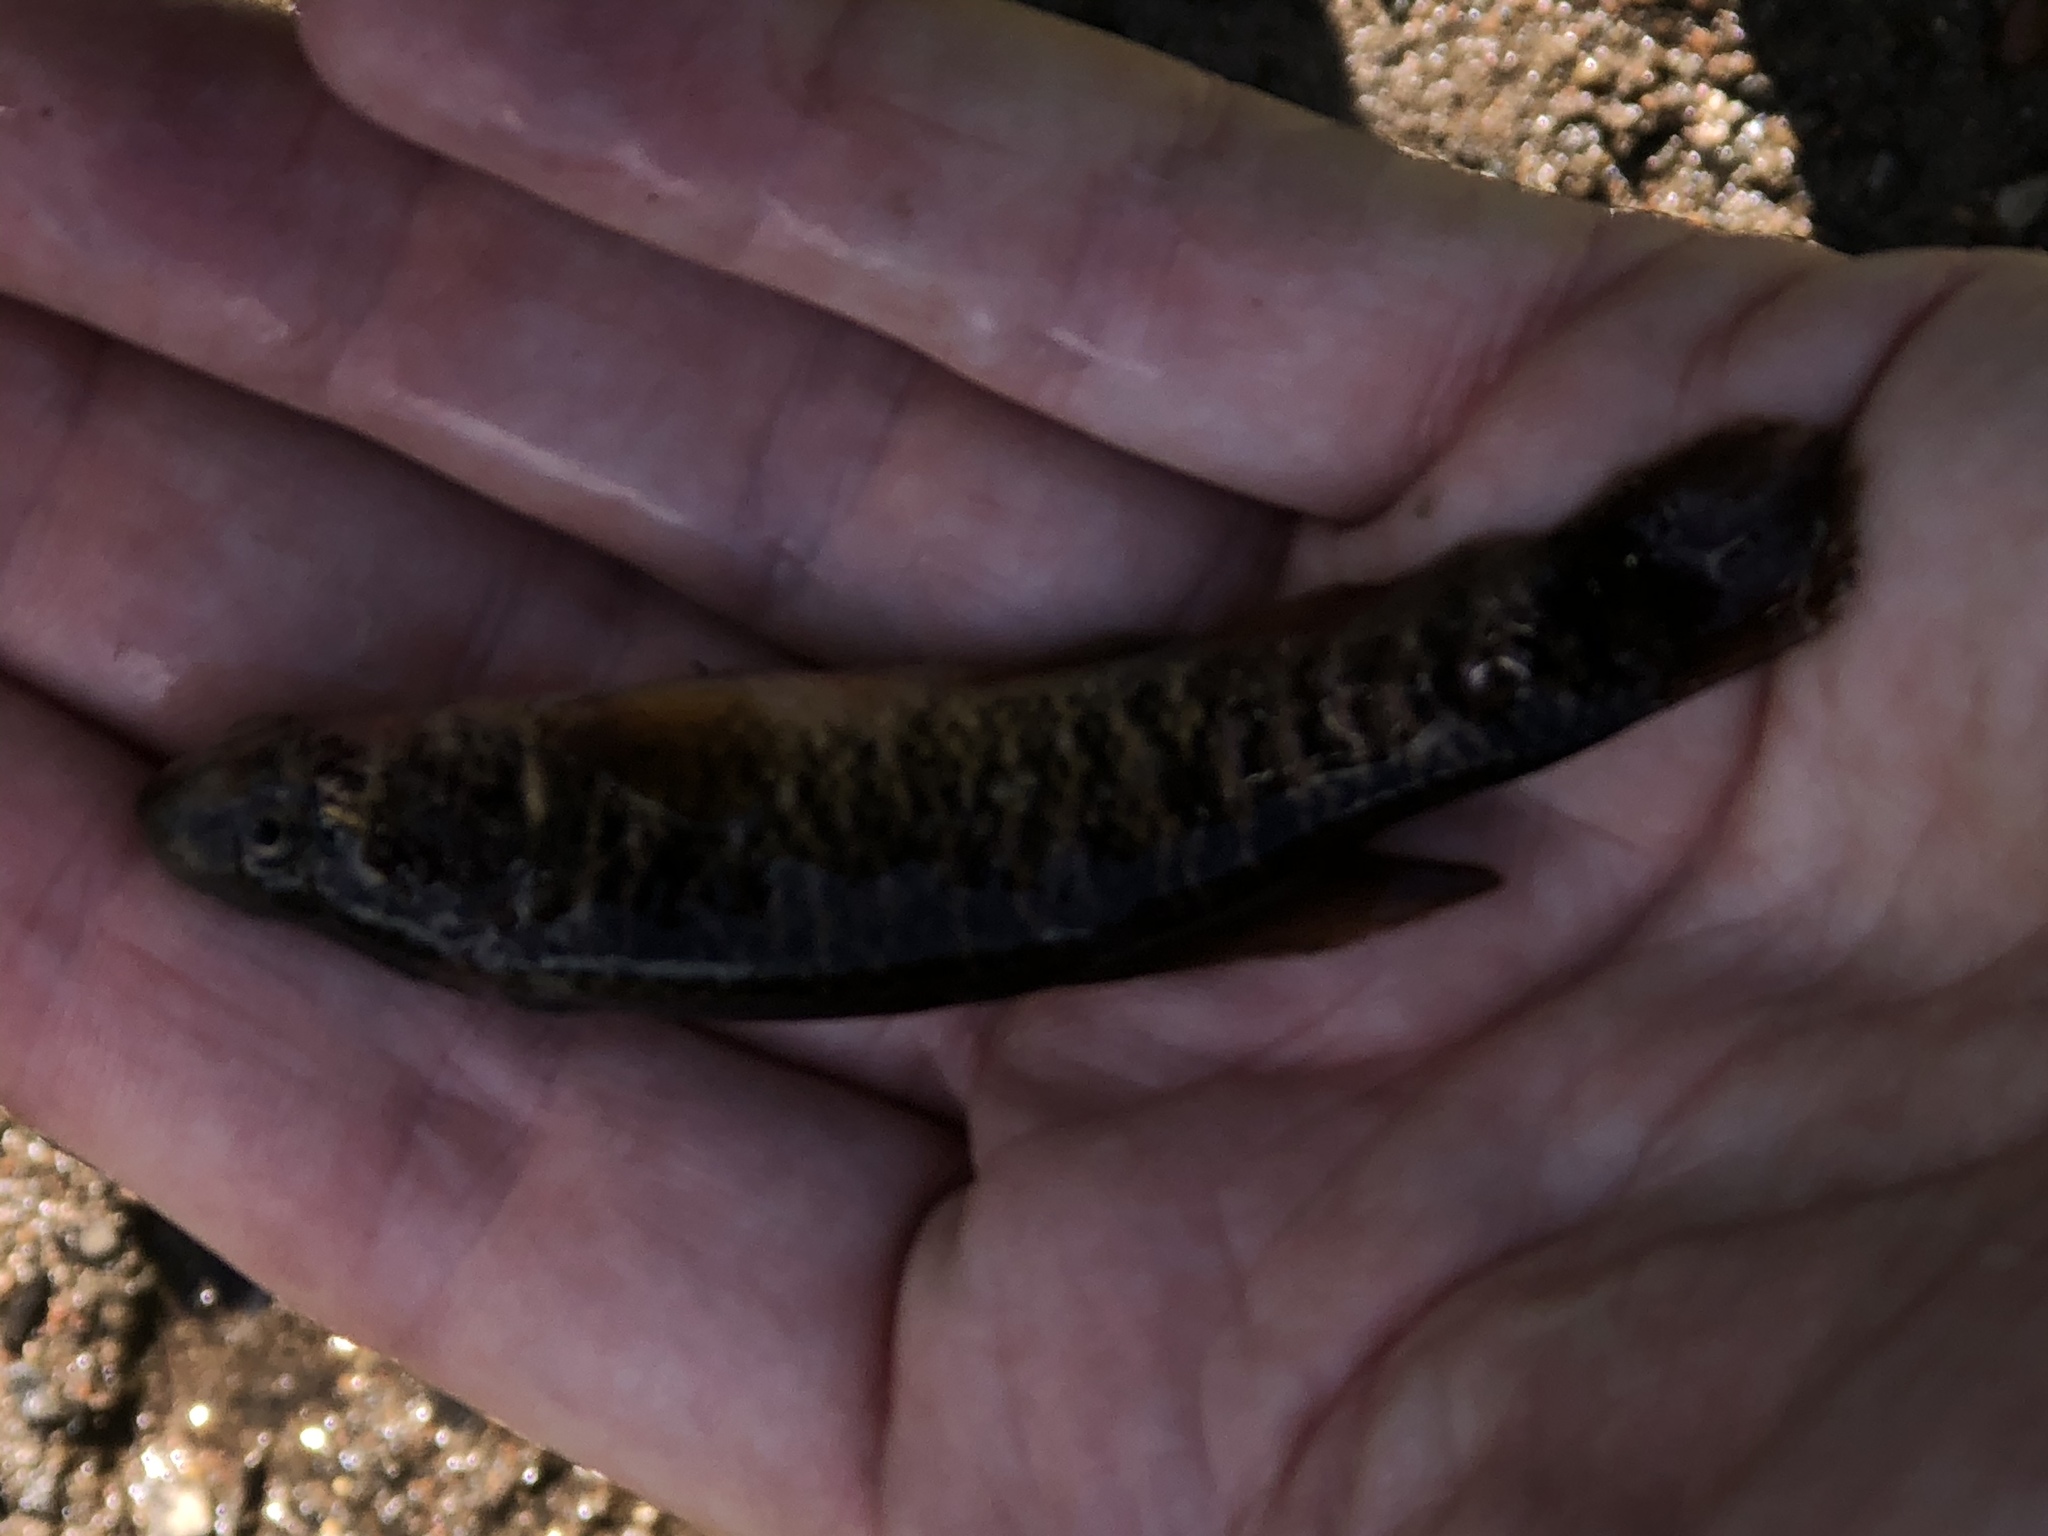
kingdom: Animalia
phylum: Chordata
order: Esociformes
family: Umbridae
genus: Umbra
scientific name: Umbra limi
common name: Central mudminnow
